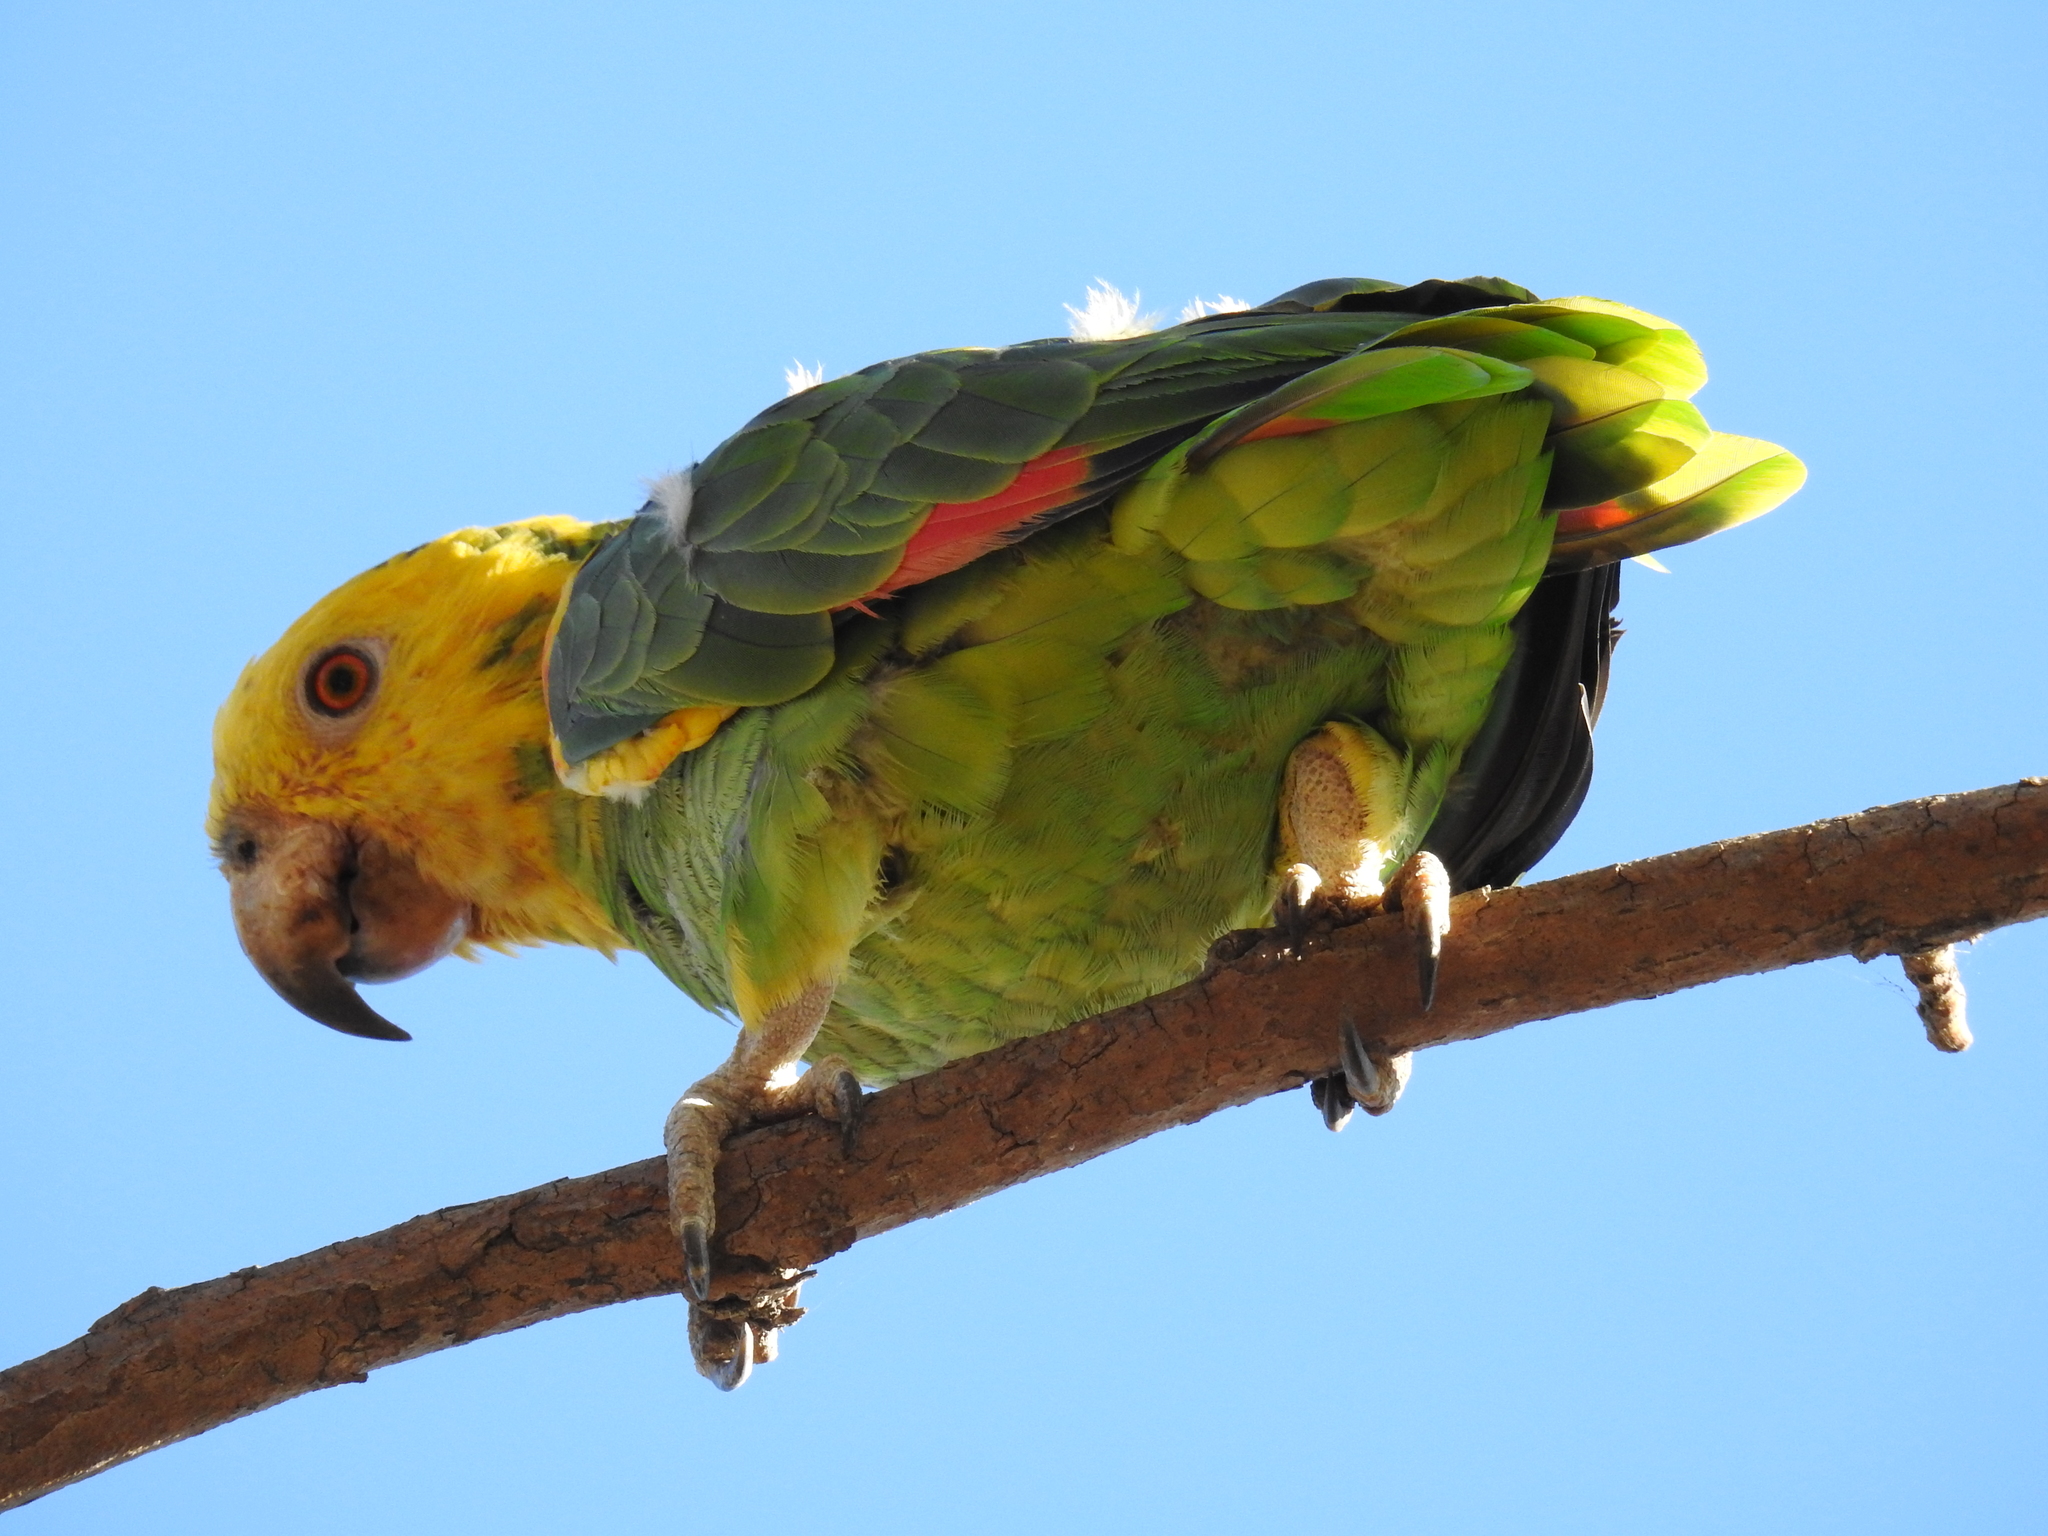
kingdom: Animalia
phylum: Chordata
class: Aves
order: Psittaciformes
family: Psittacidae
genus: Amazona
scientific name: Amazona oratrix
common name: Yellow-headed amazon
